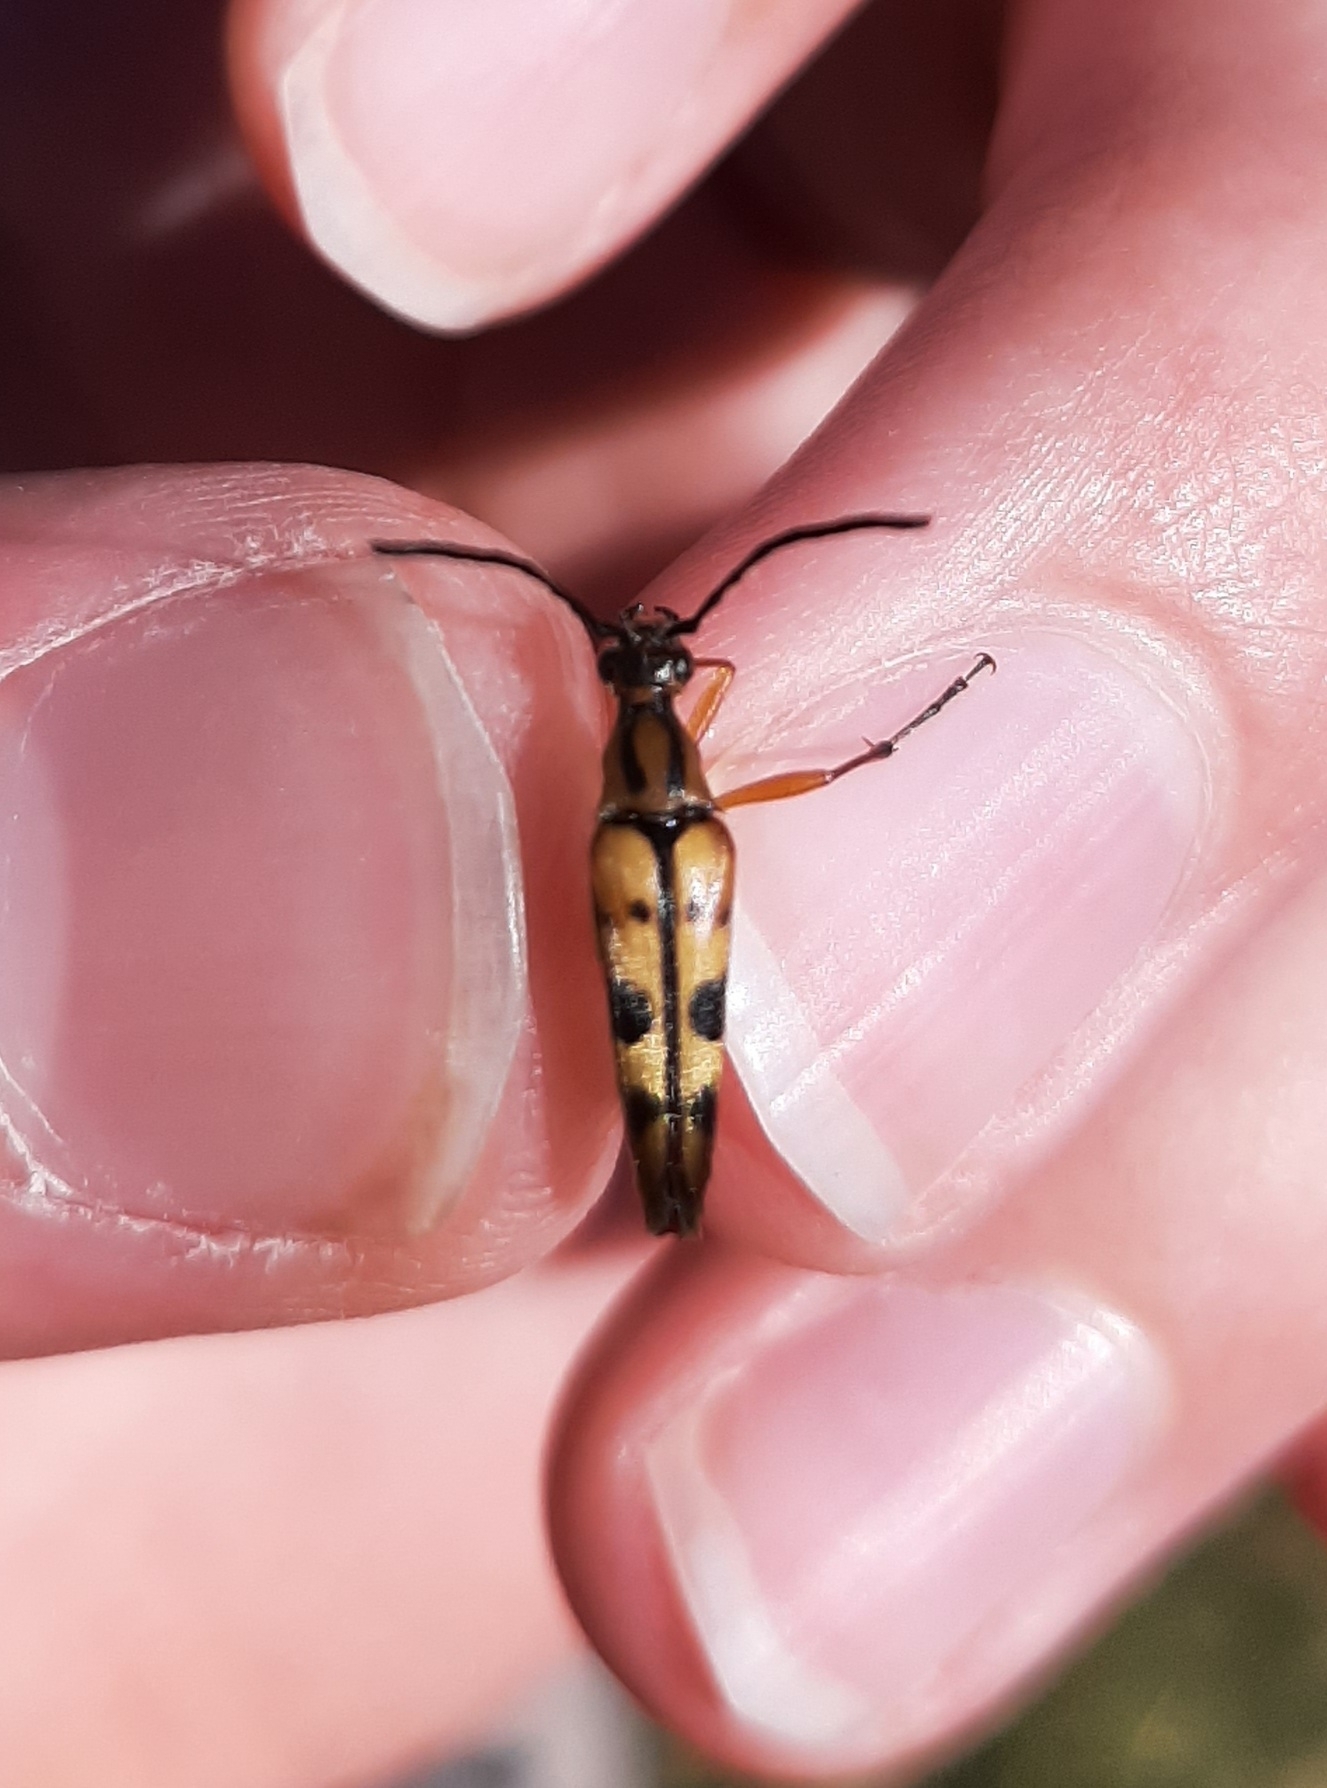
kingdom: Animalia
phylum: Arthropoda
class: Insecta
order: Coleoptera
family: Cerambycidae
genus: Strangalia
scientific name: Strangalia famelica
